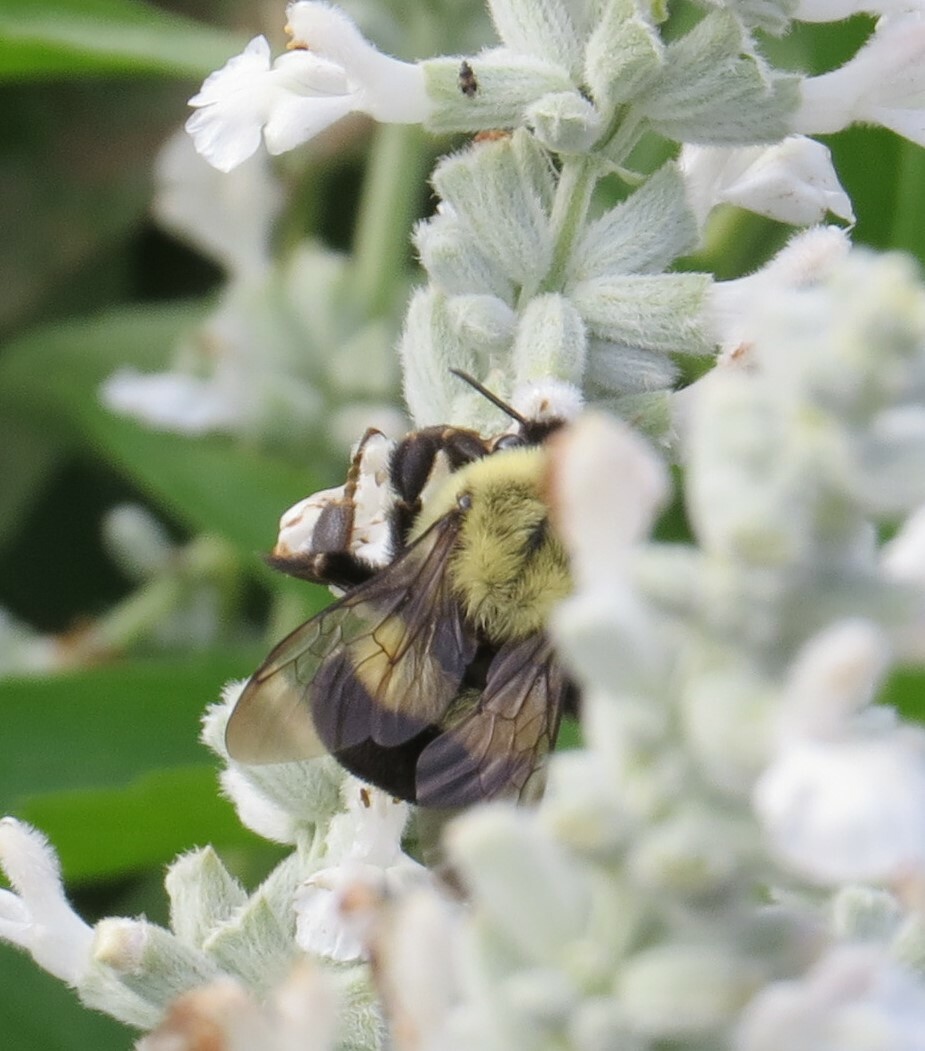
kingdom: Animalia
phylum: Arthropoda
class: Insecta
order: Hymenoptera
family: Apidae
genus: Bombus
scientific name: Bombus impatiens
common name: Common eastern bumble bee
